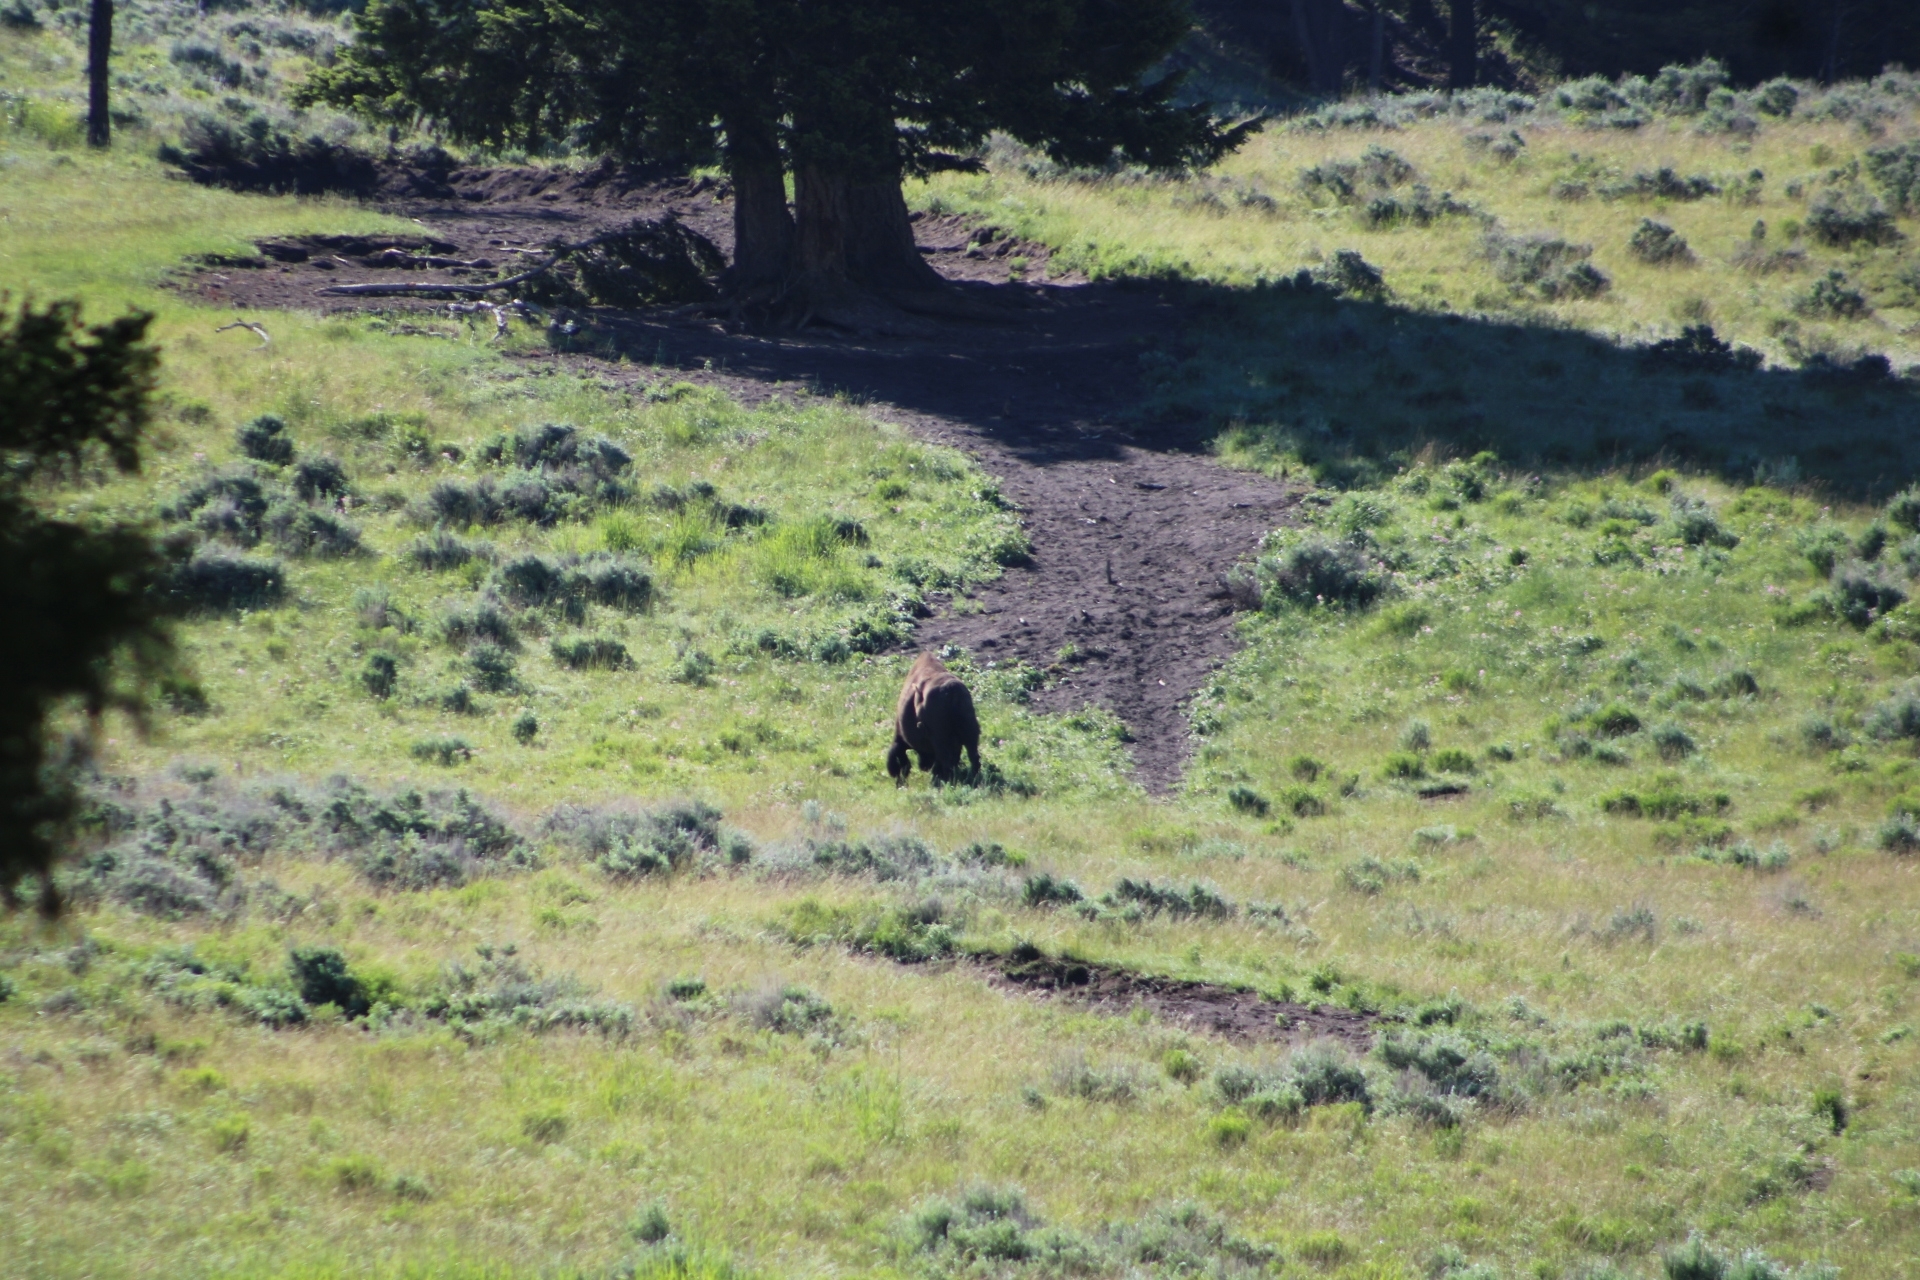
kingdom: Animalia
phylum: Chordata
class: Mammalia
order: Artiodactyla
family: Bovidae
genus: Bison
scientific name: Bison bison
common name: American bison
